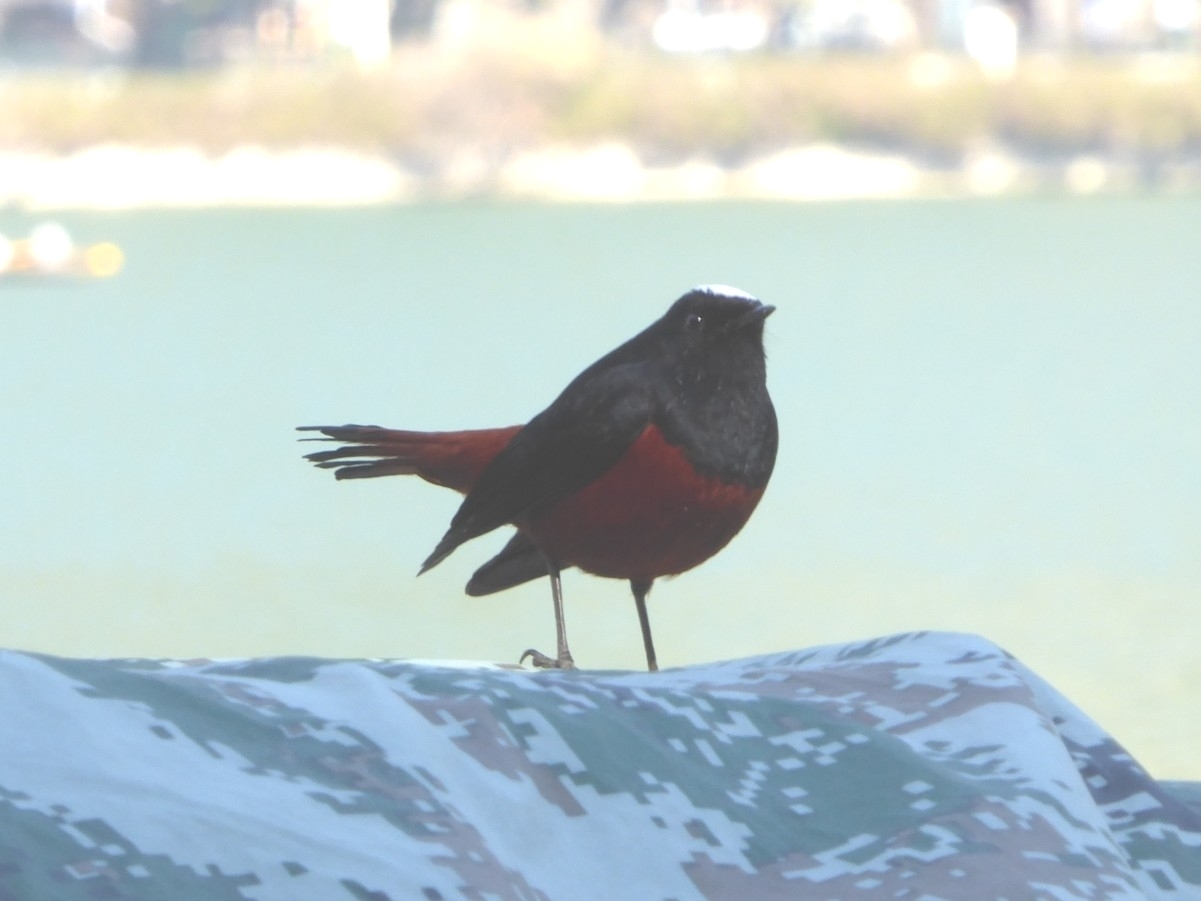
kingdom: Animalia
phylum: Chordata
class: Aves
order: Passeriformes
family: Muscicapidae
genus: Chaimarrornis
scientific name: Chaimarrornis leucocephalus
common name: White-capped redstart
